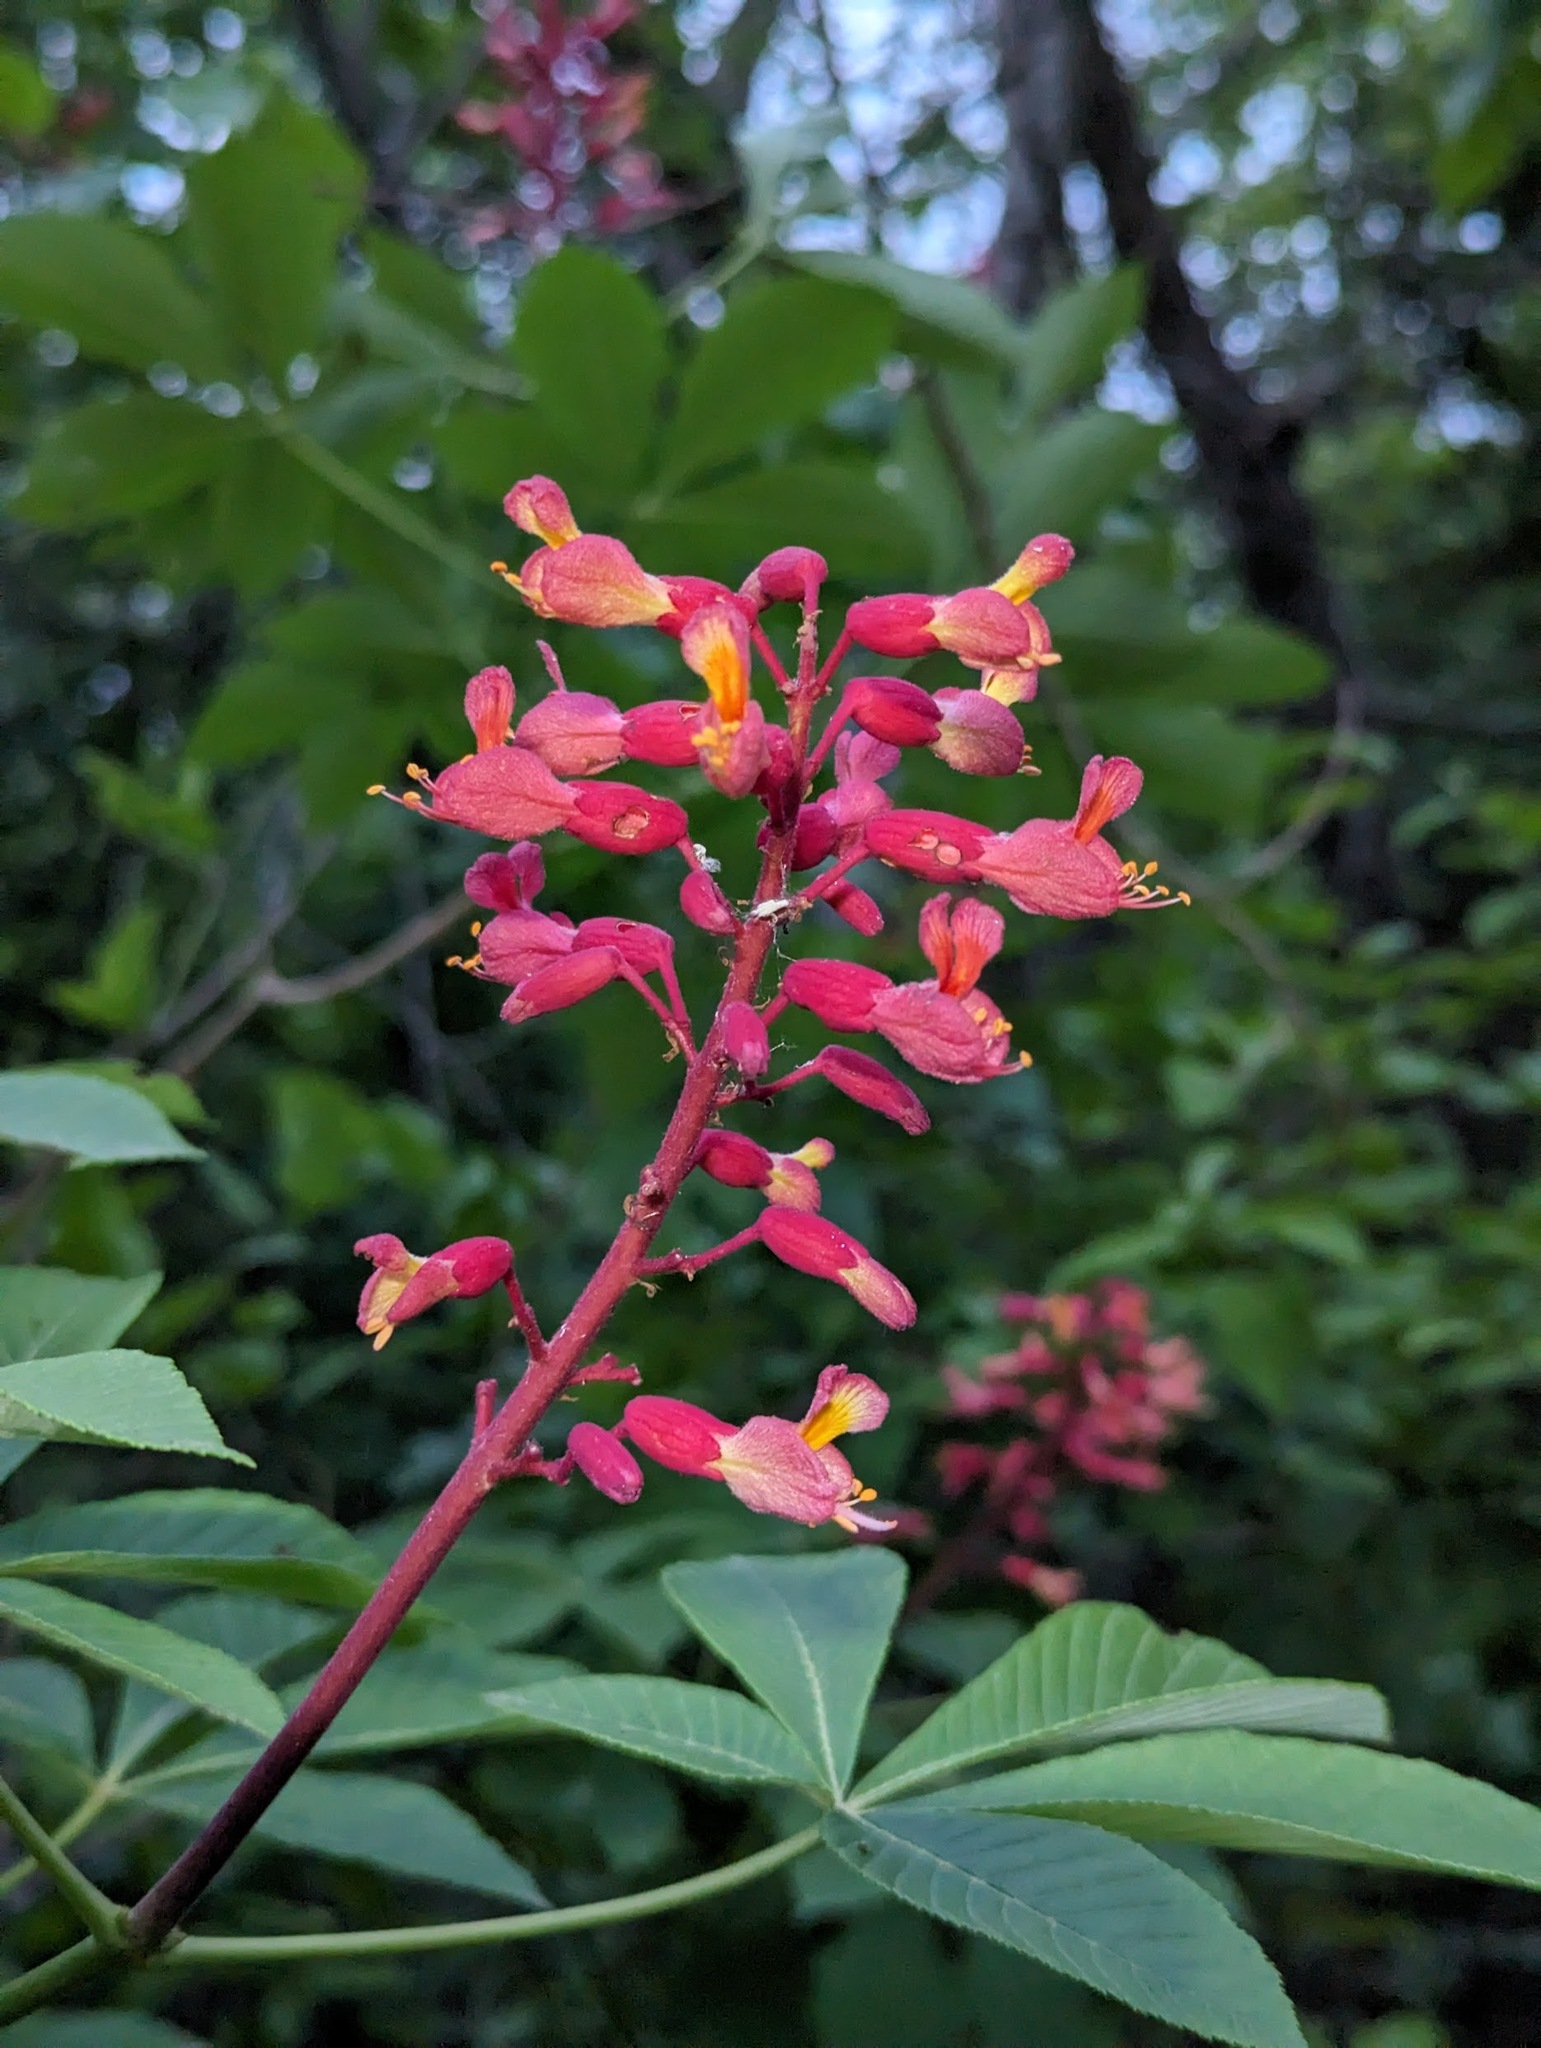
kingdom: Plantae
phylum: Tracheophyta
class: Magnoliopsida
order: Sapindales
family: Sapindaceae
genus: Aesculus
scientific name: Aesculus pavia
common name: Red buckeye
